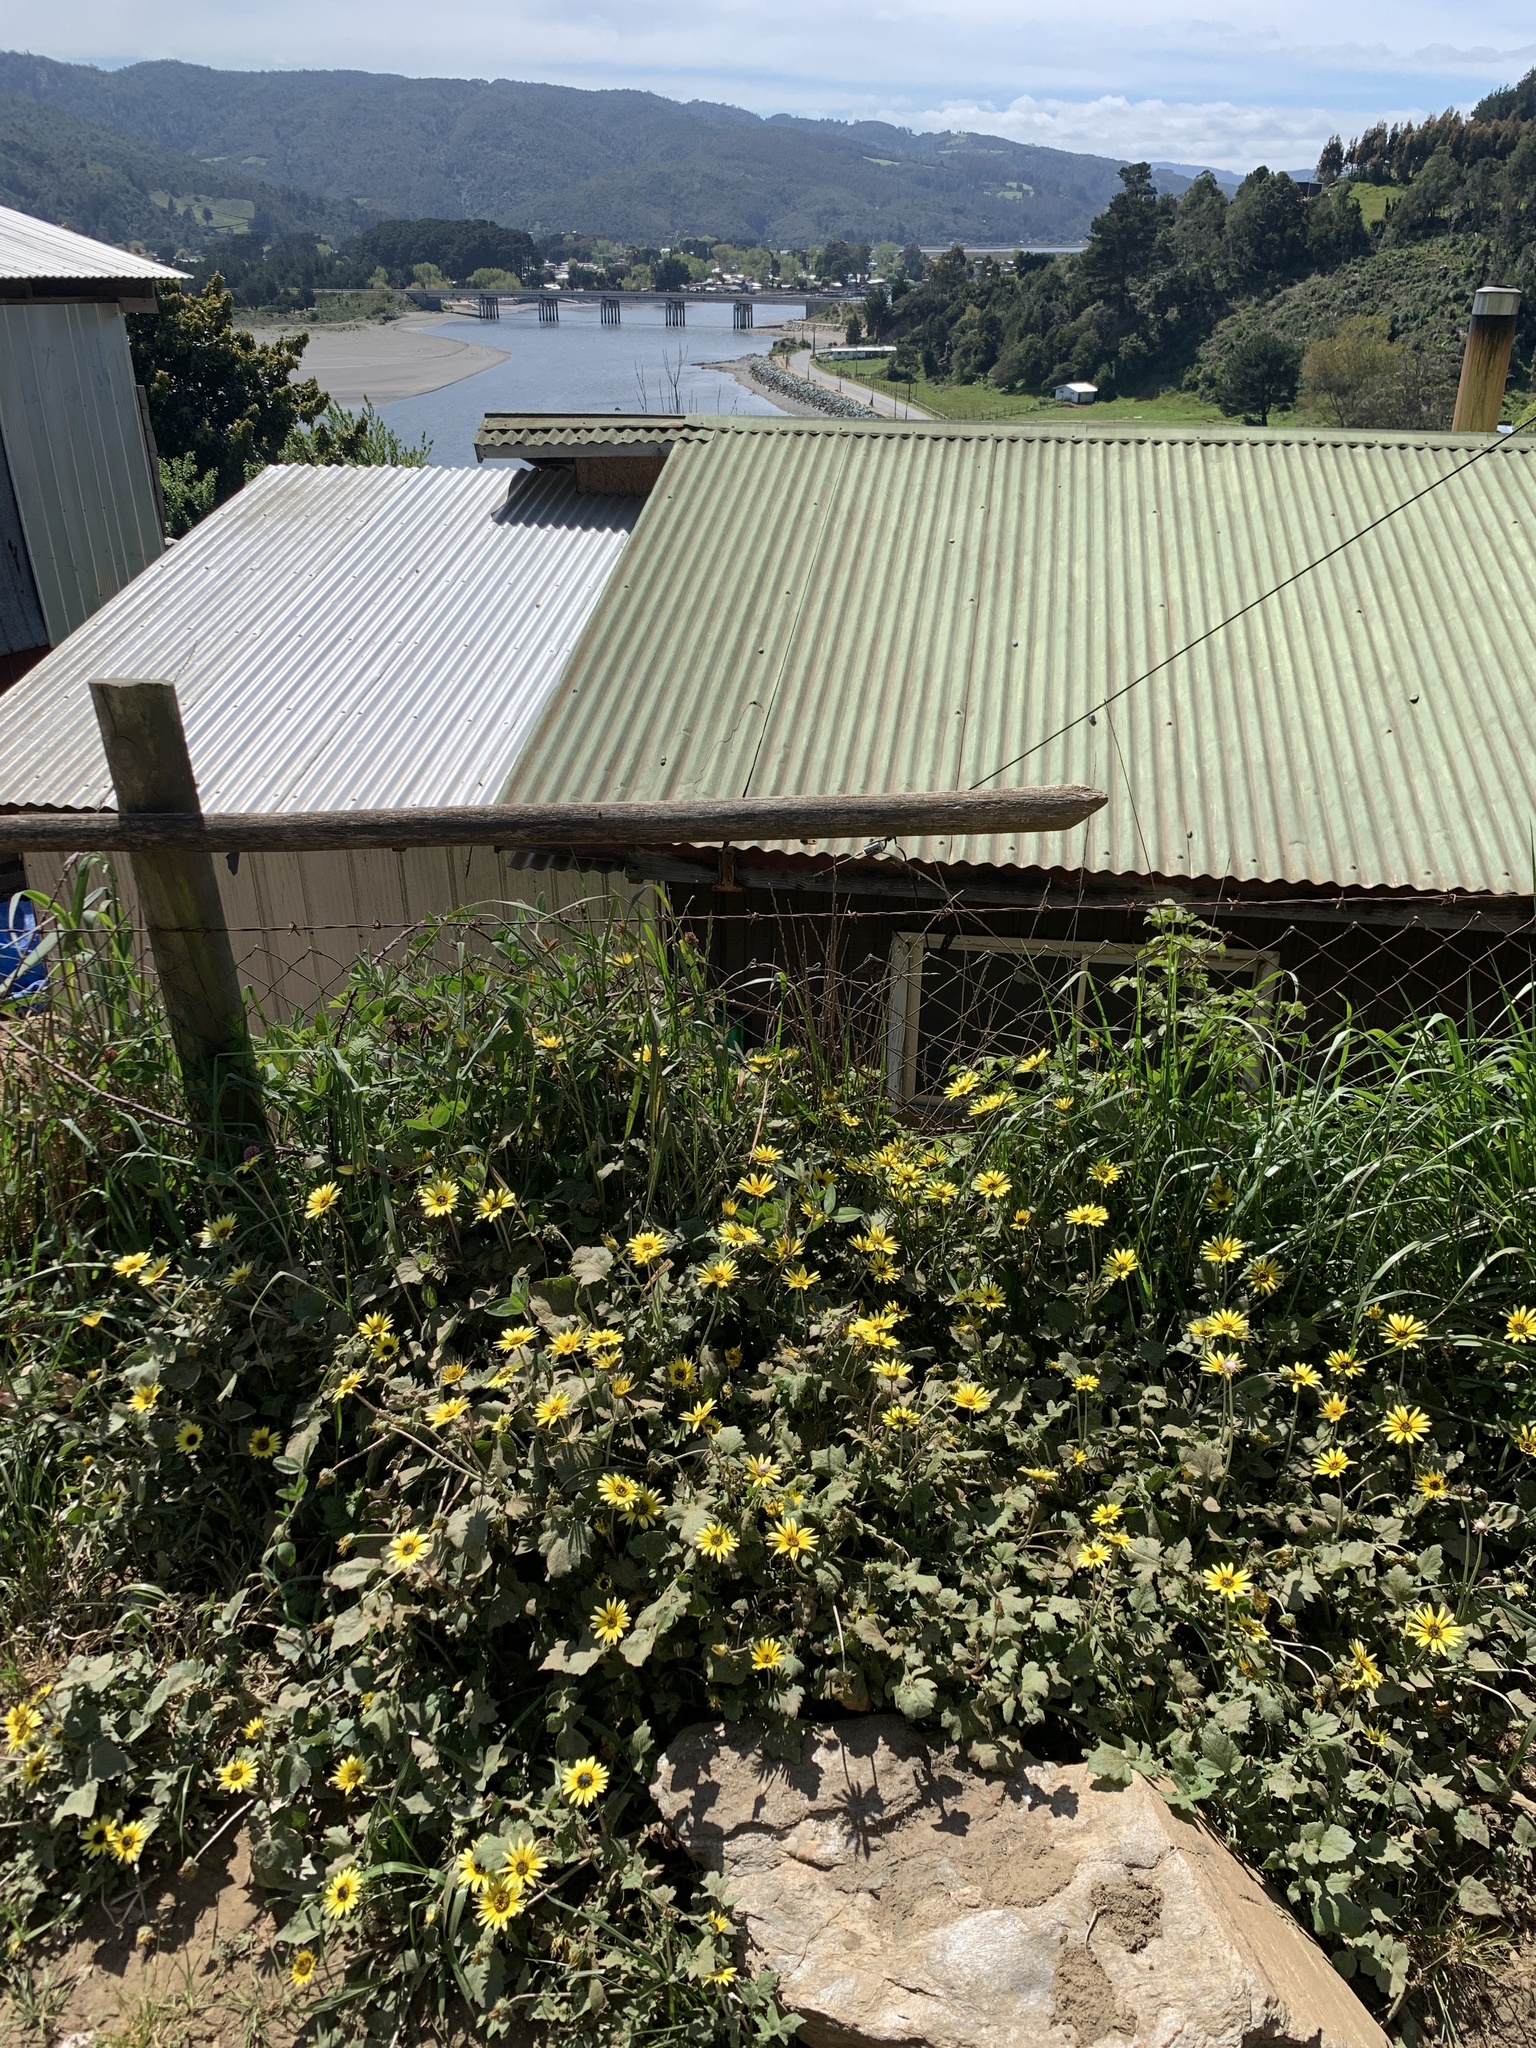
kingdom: Plantae
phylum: Tracheophyta
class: Magnoliopsida
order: Asterales
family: Asteraceae
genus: Arctotheca
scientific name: Arctotheca calendula
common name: Capeweed
